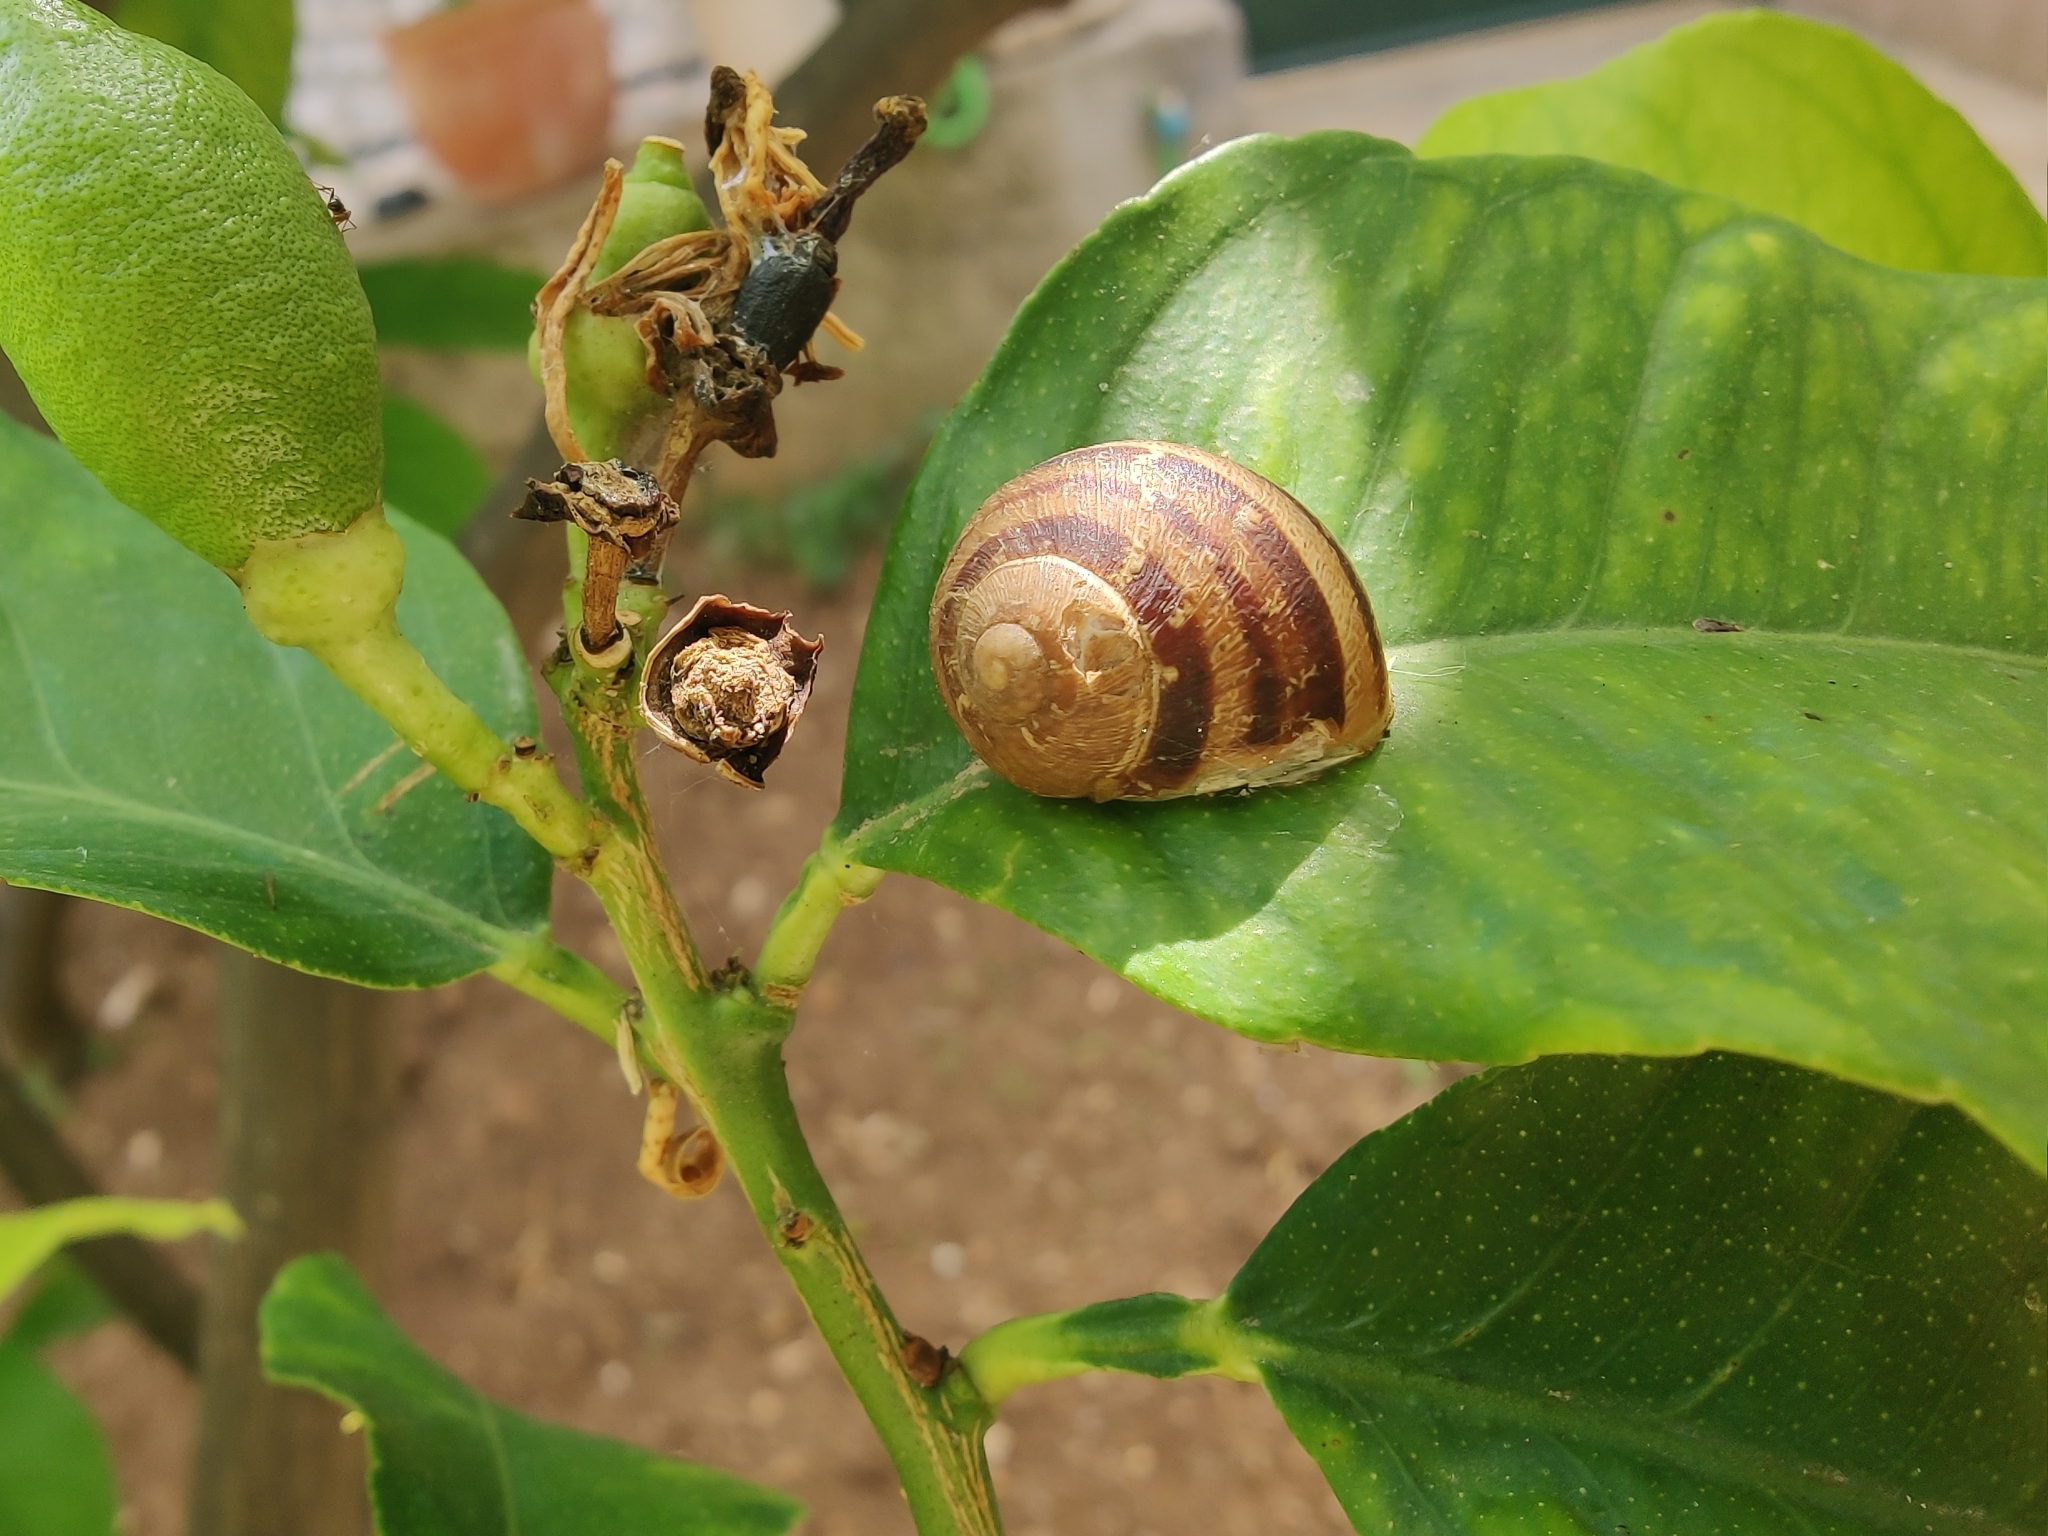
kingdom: Animalia
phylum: Mollusca
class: Gastropoda
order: Stylommatophora
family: Helicidae
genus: Cornu
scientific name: Cornu aspersum
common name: Brown garden snail
